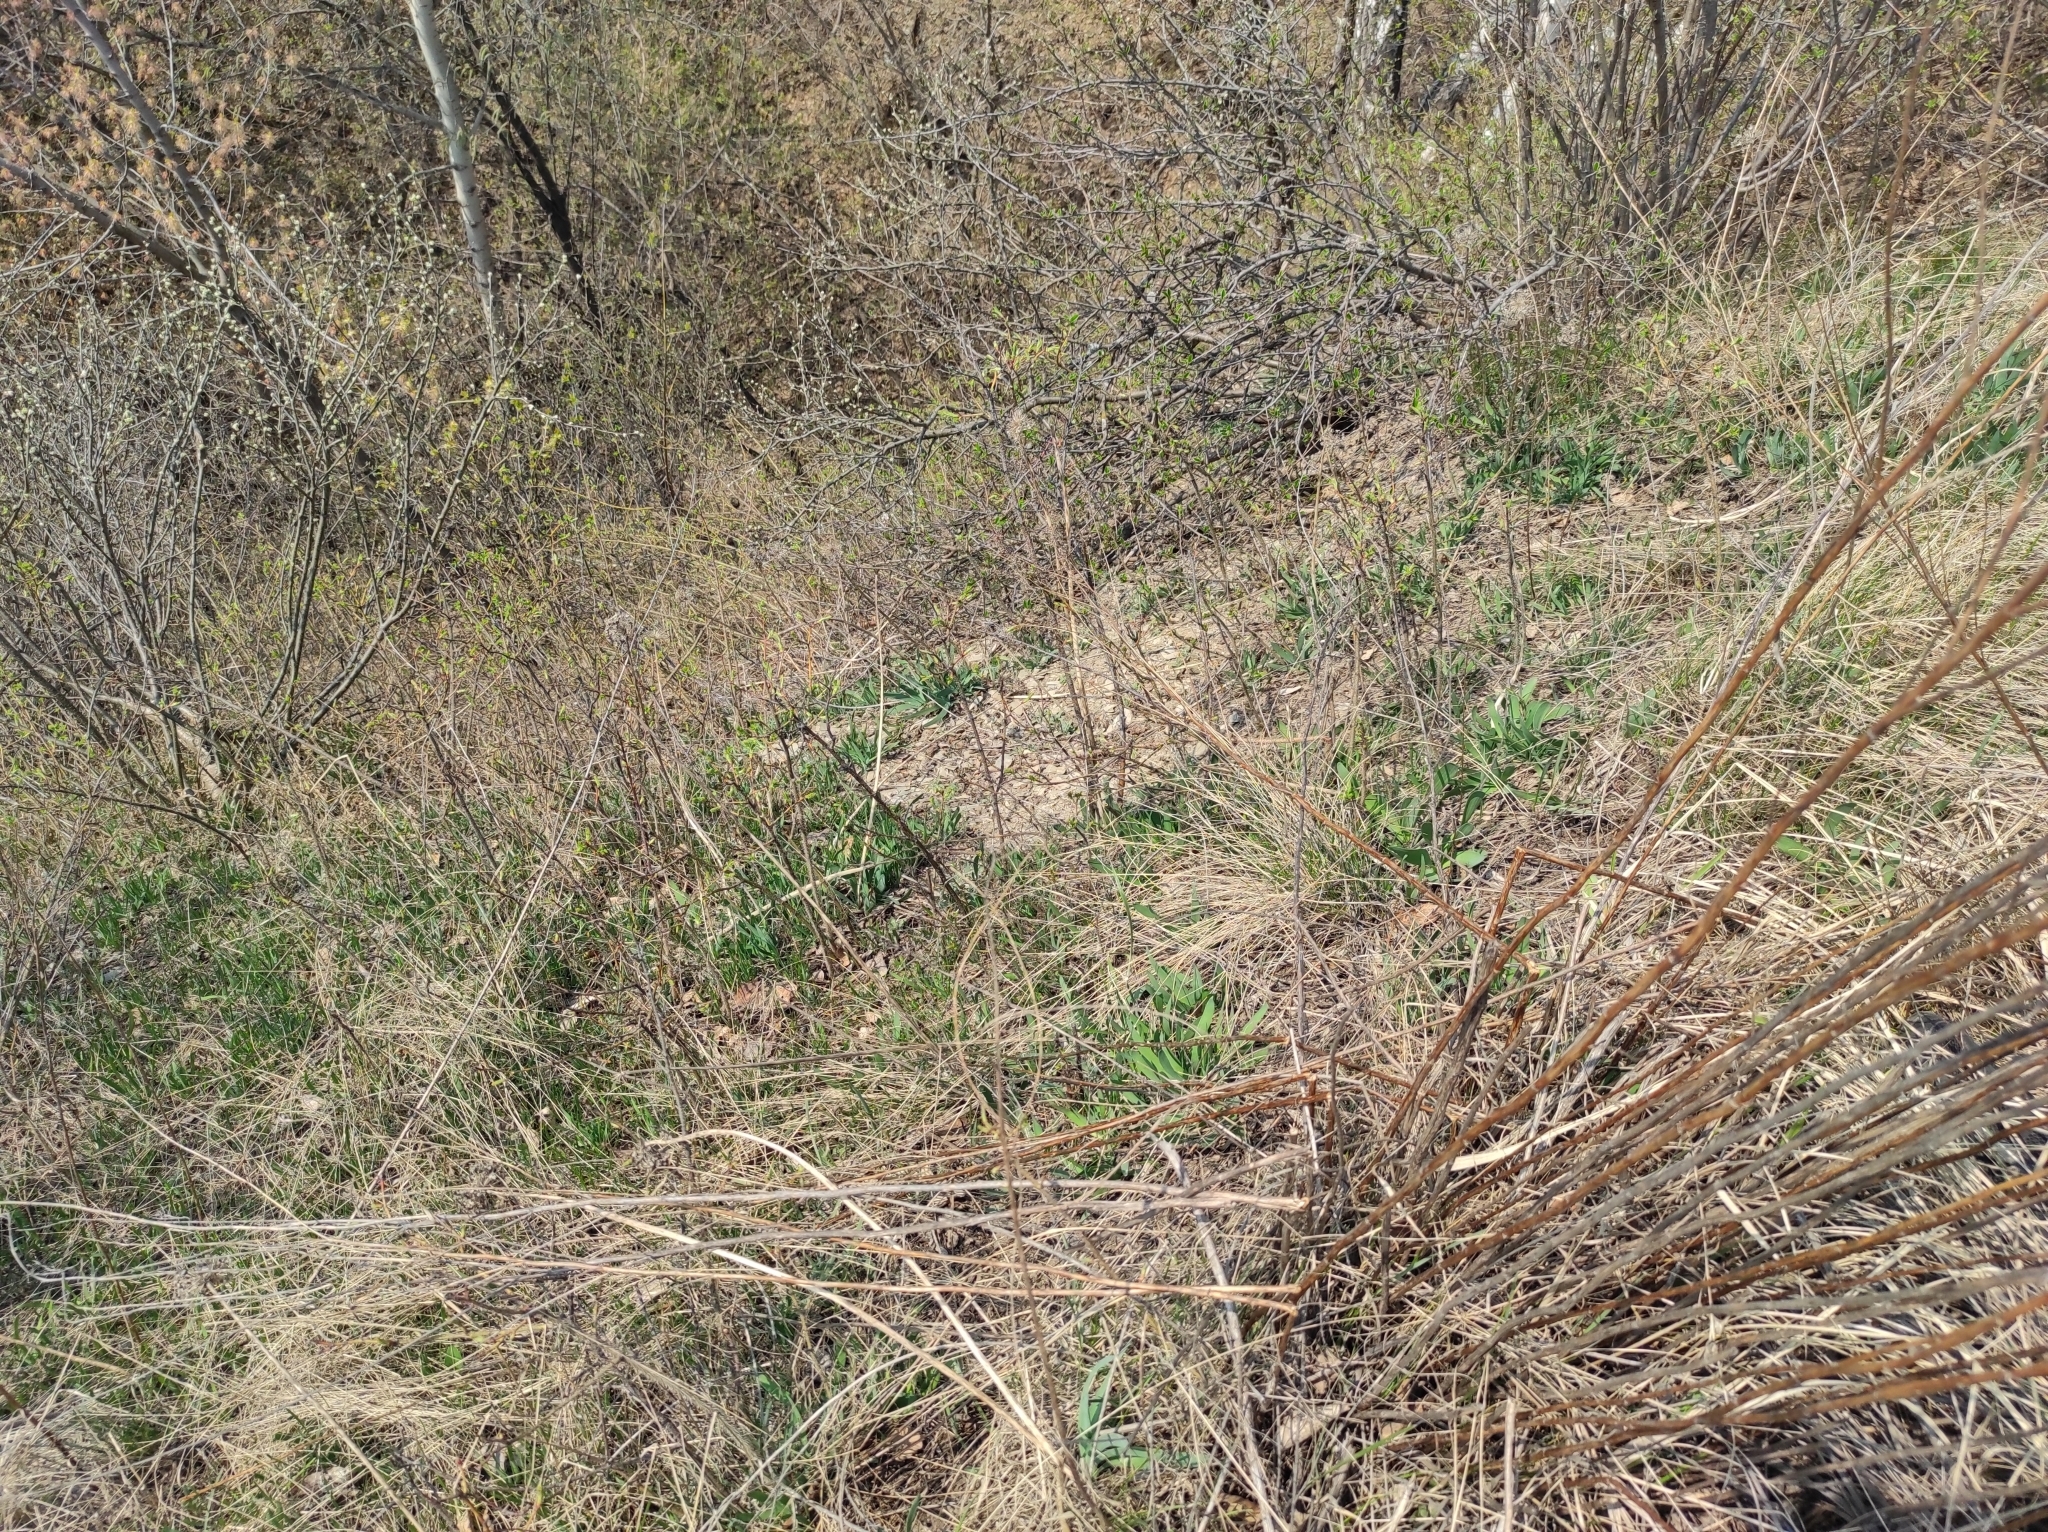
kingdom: Plantae
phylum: Tracheophyta
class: Liliopsida
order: Asparagales
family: Amaryllidaceae
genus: Allium
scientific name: Allium nutans
